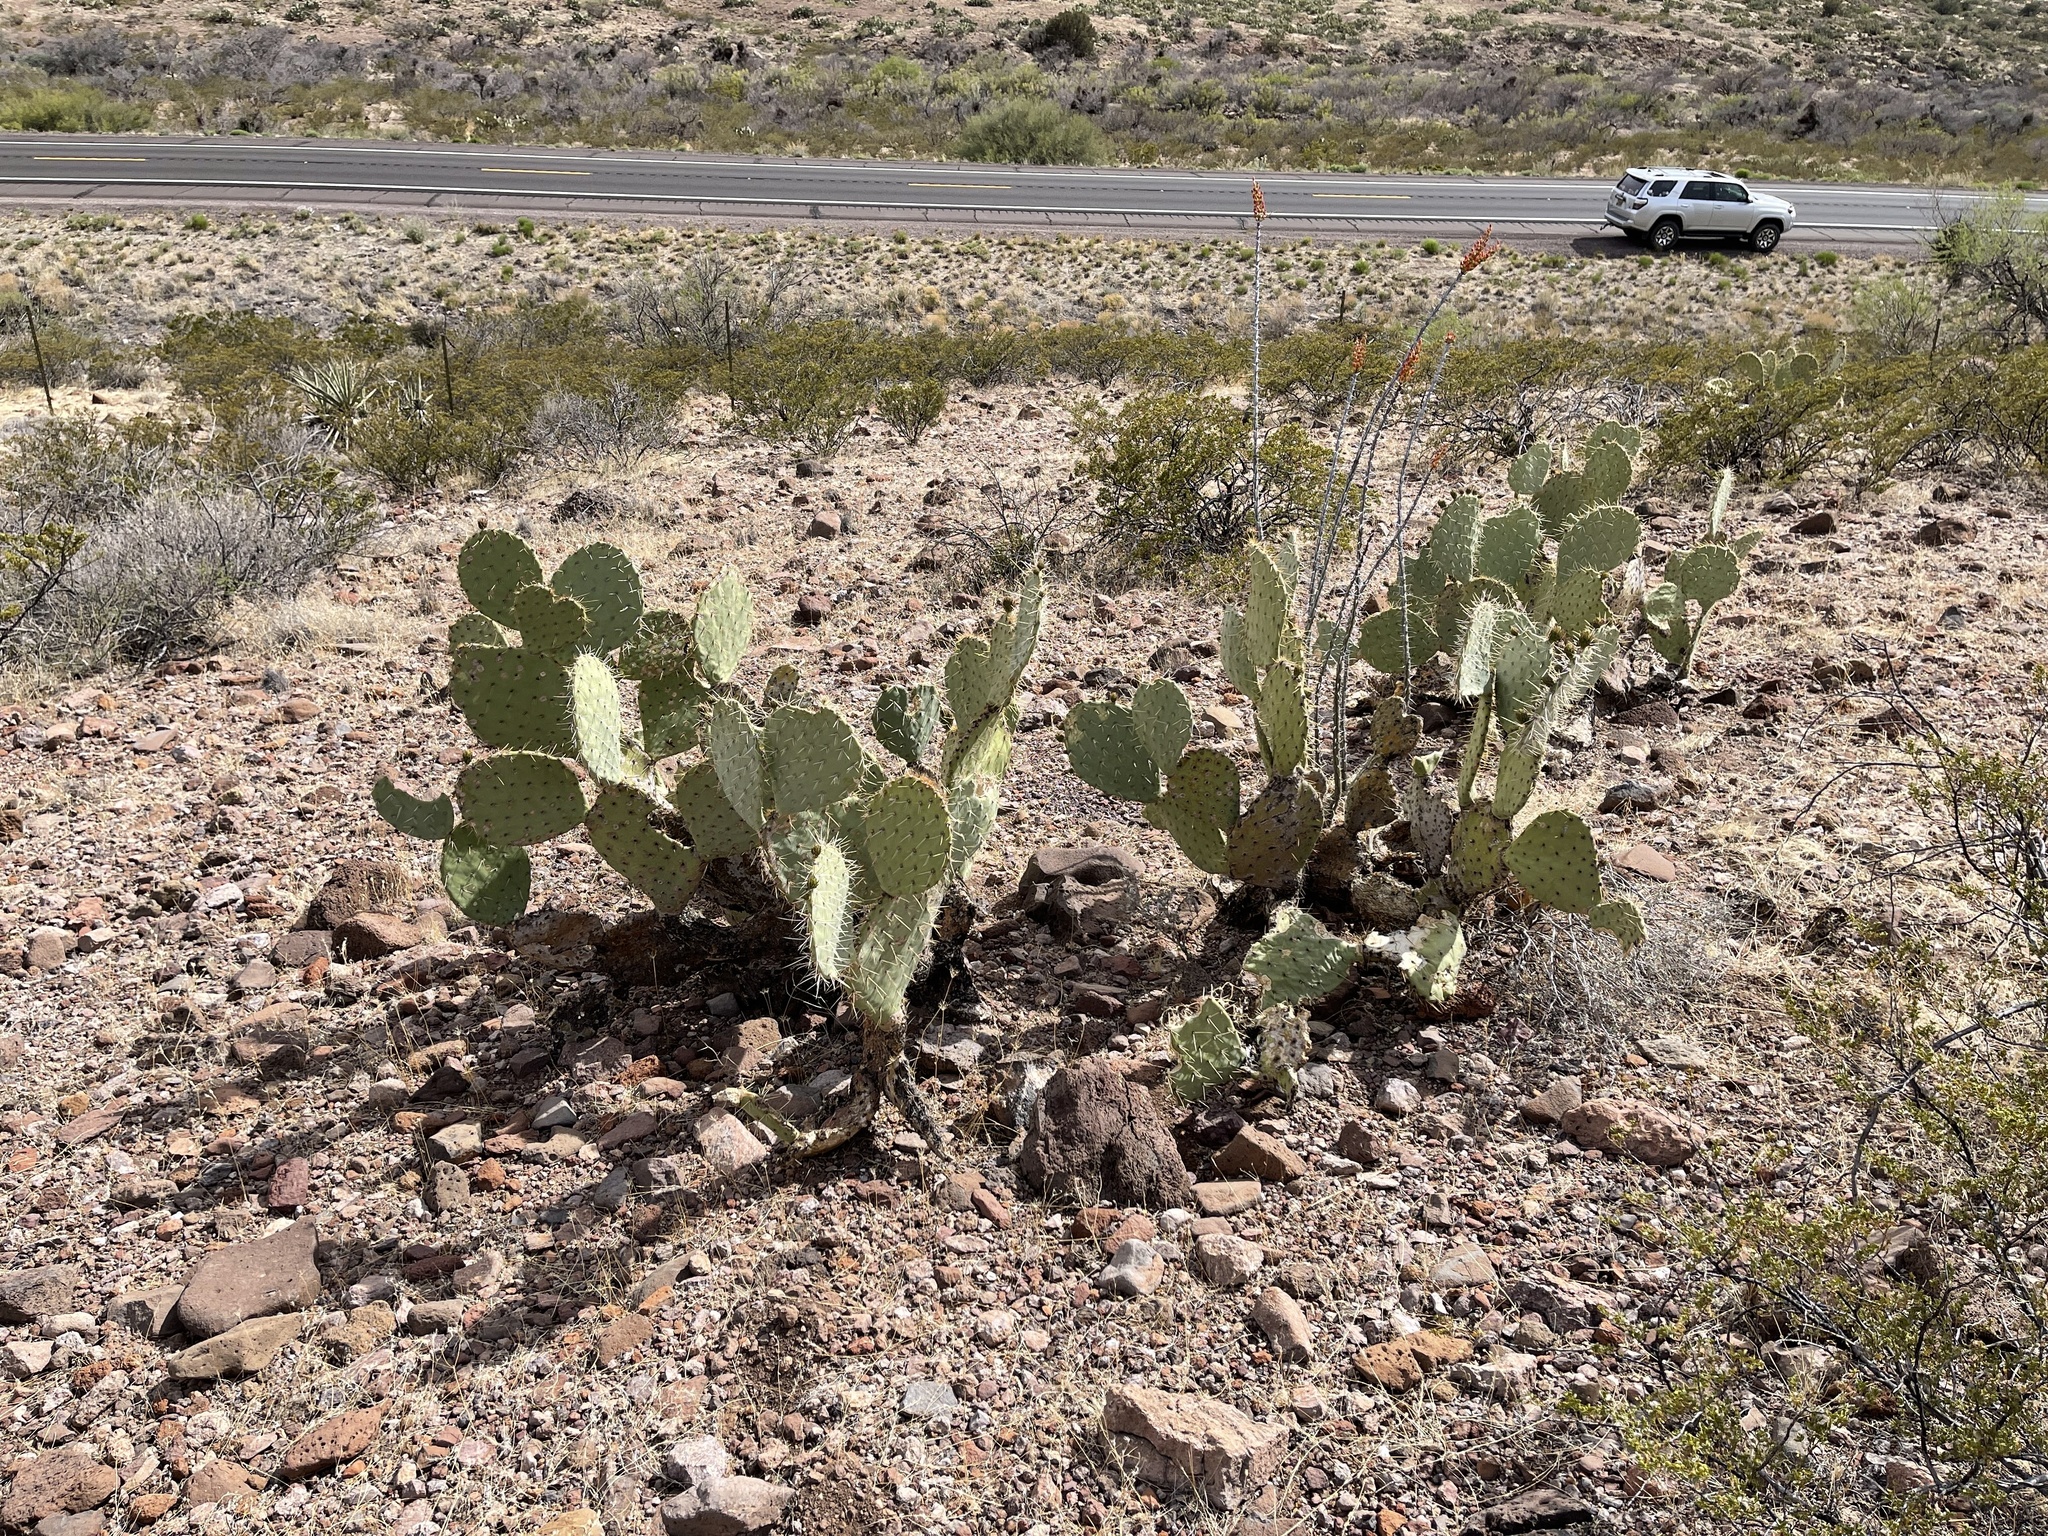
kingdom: Plantae
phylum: Tracheophyta
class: Magnoliopsida
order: Caryophyllales
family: Cactaceae
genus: Opuntia
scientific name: Opuntia engelmannii
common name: Cactus-apple
